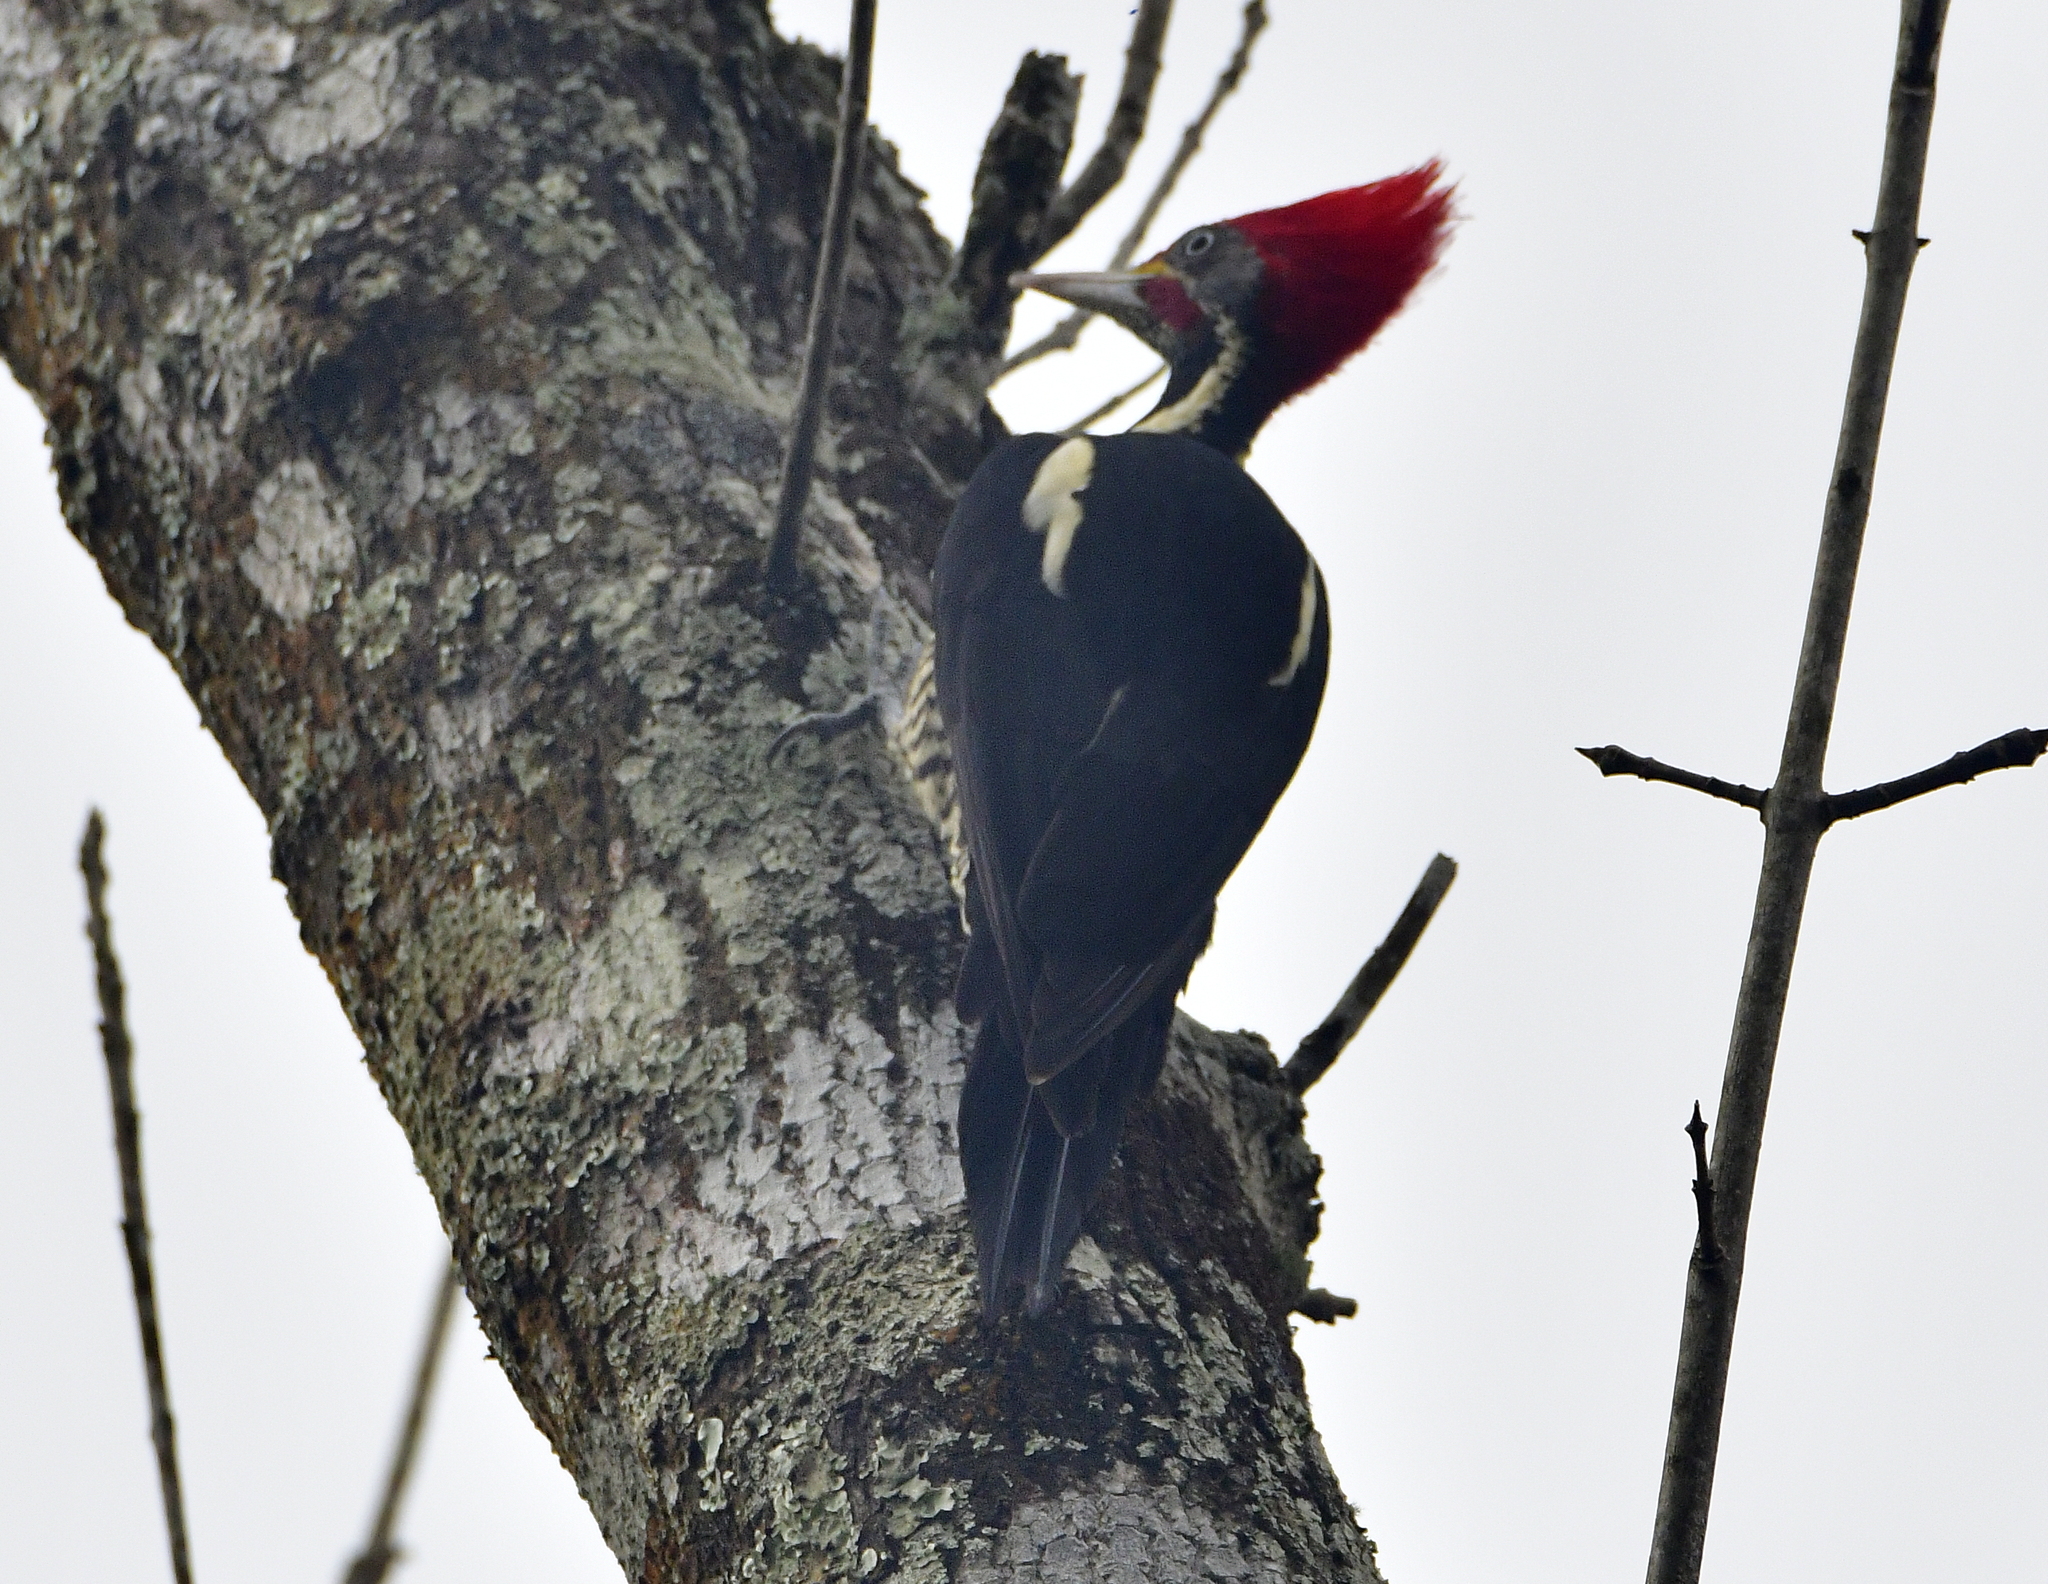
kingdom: Animalia
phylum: Chordata
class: Aves
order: Piciformes
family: Picidae
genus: Dryocopus
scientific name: Dryocopus lineatus
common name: Lineated woodpecker
